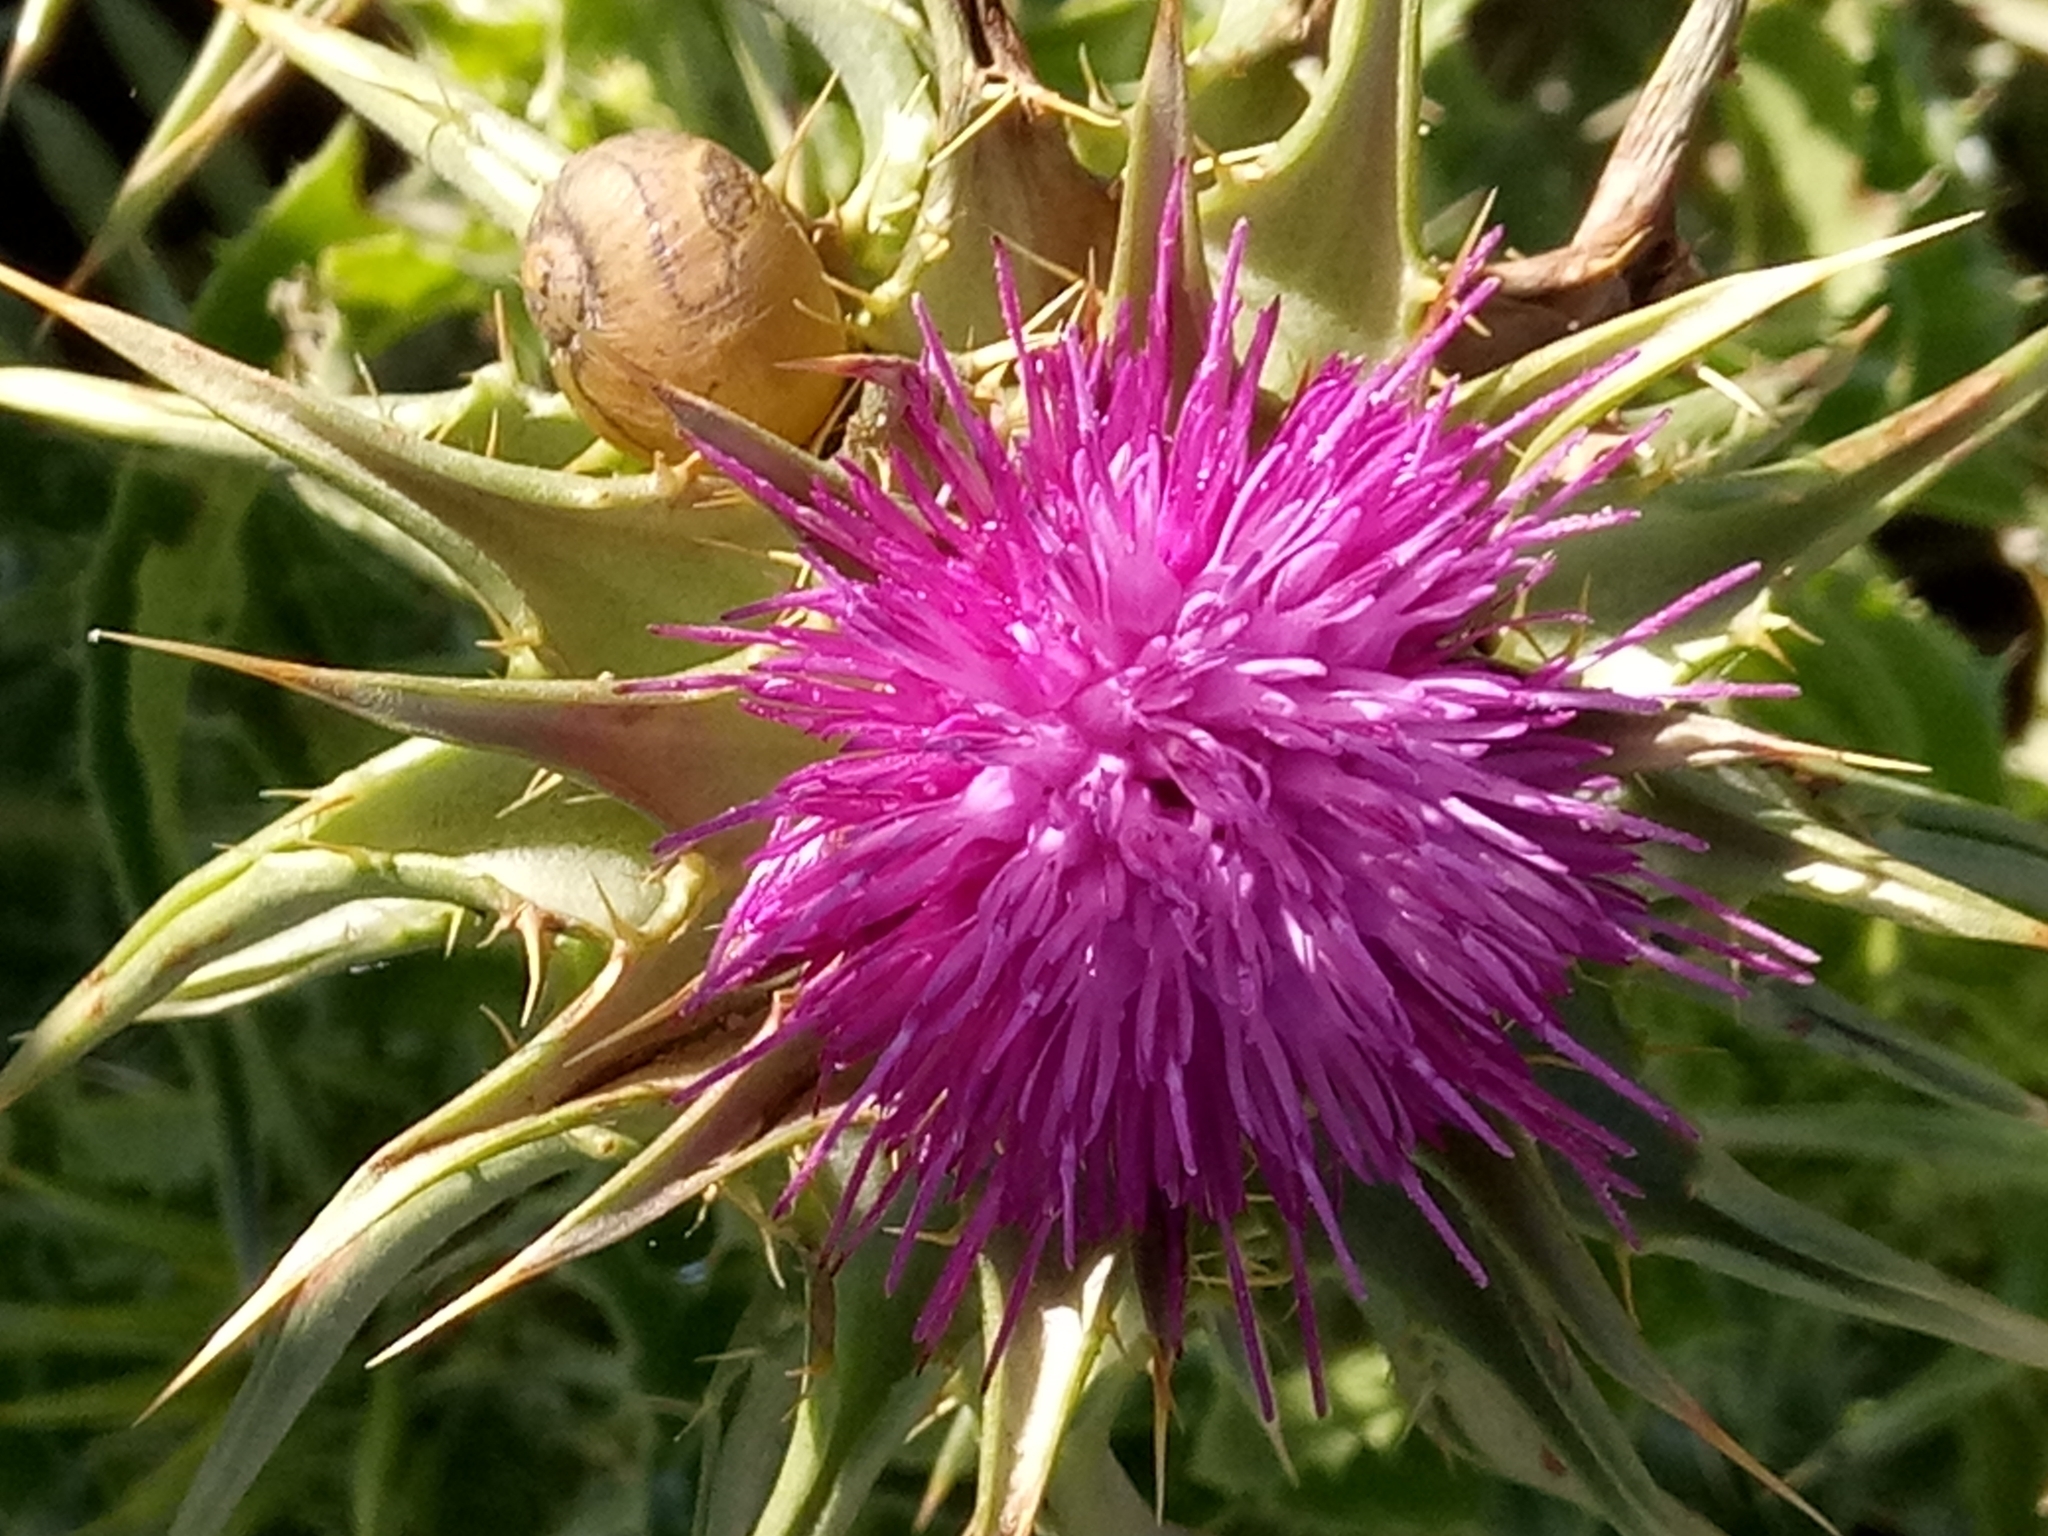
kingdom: Plantae
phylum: Tracheophyta
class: Magnoliopsida
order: Asterales
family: Asteraceae
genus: Silybum
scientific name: Silybum marianum
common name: Milk thistle
